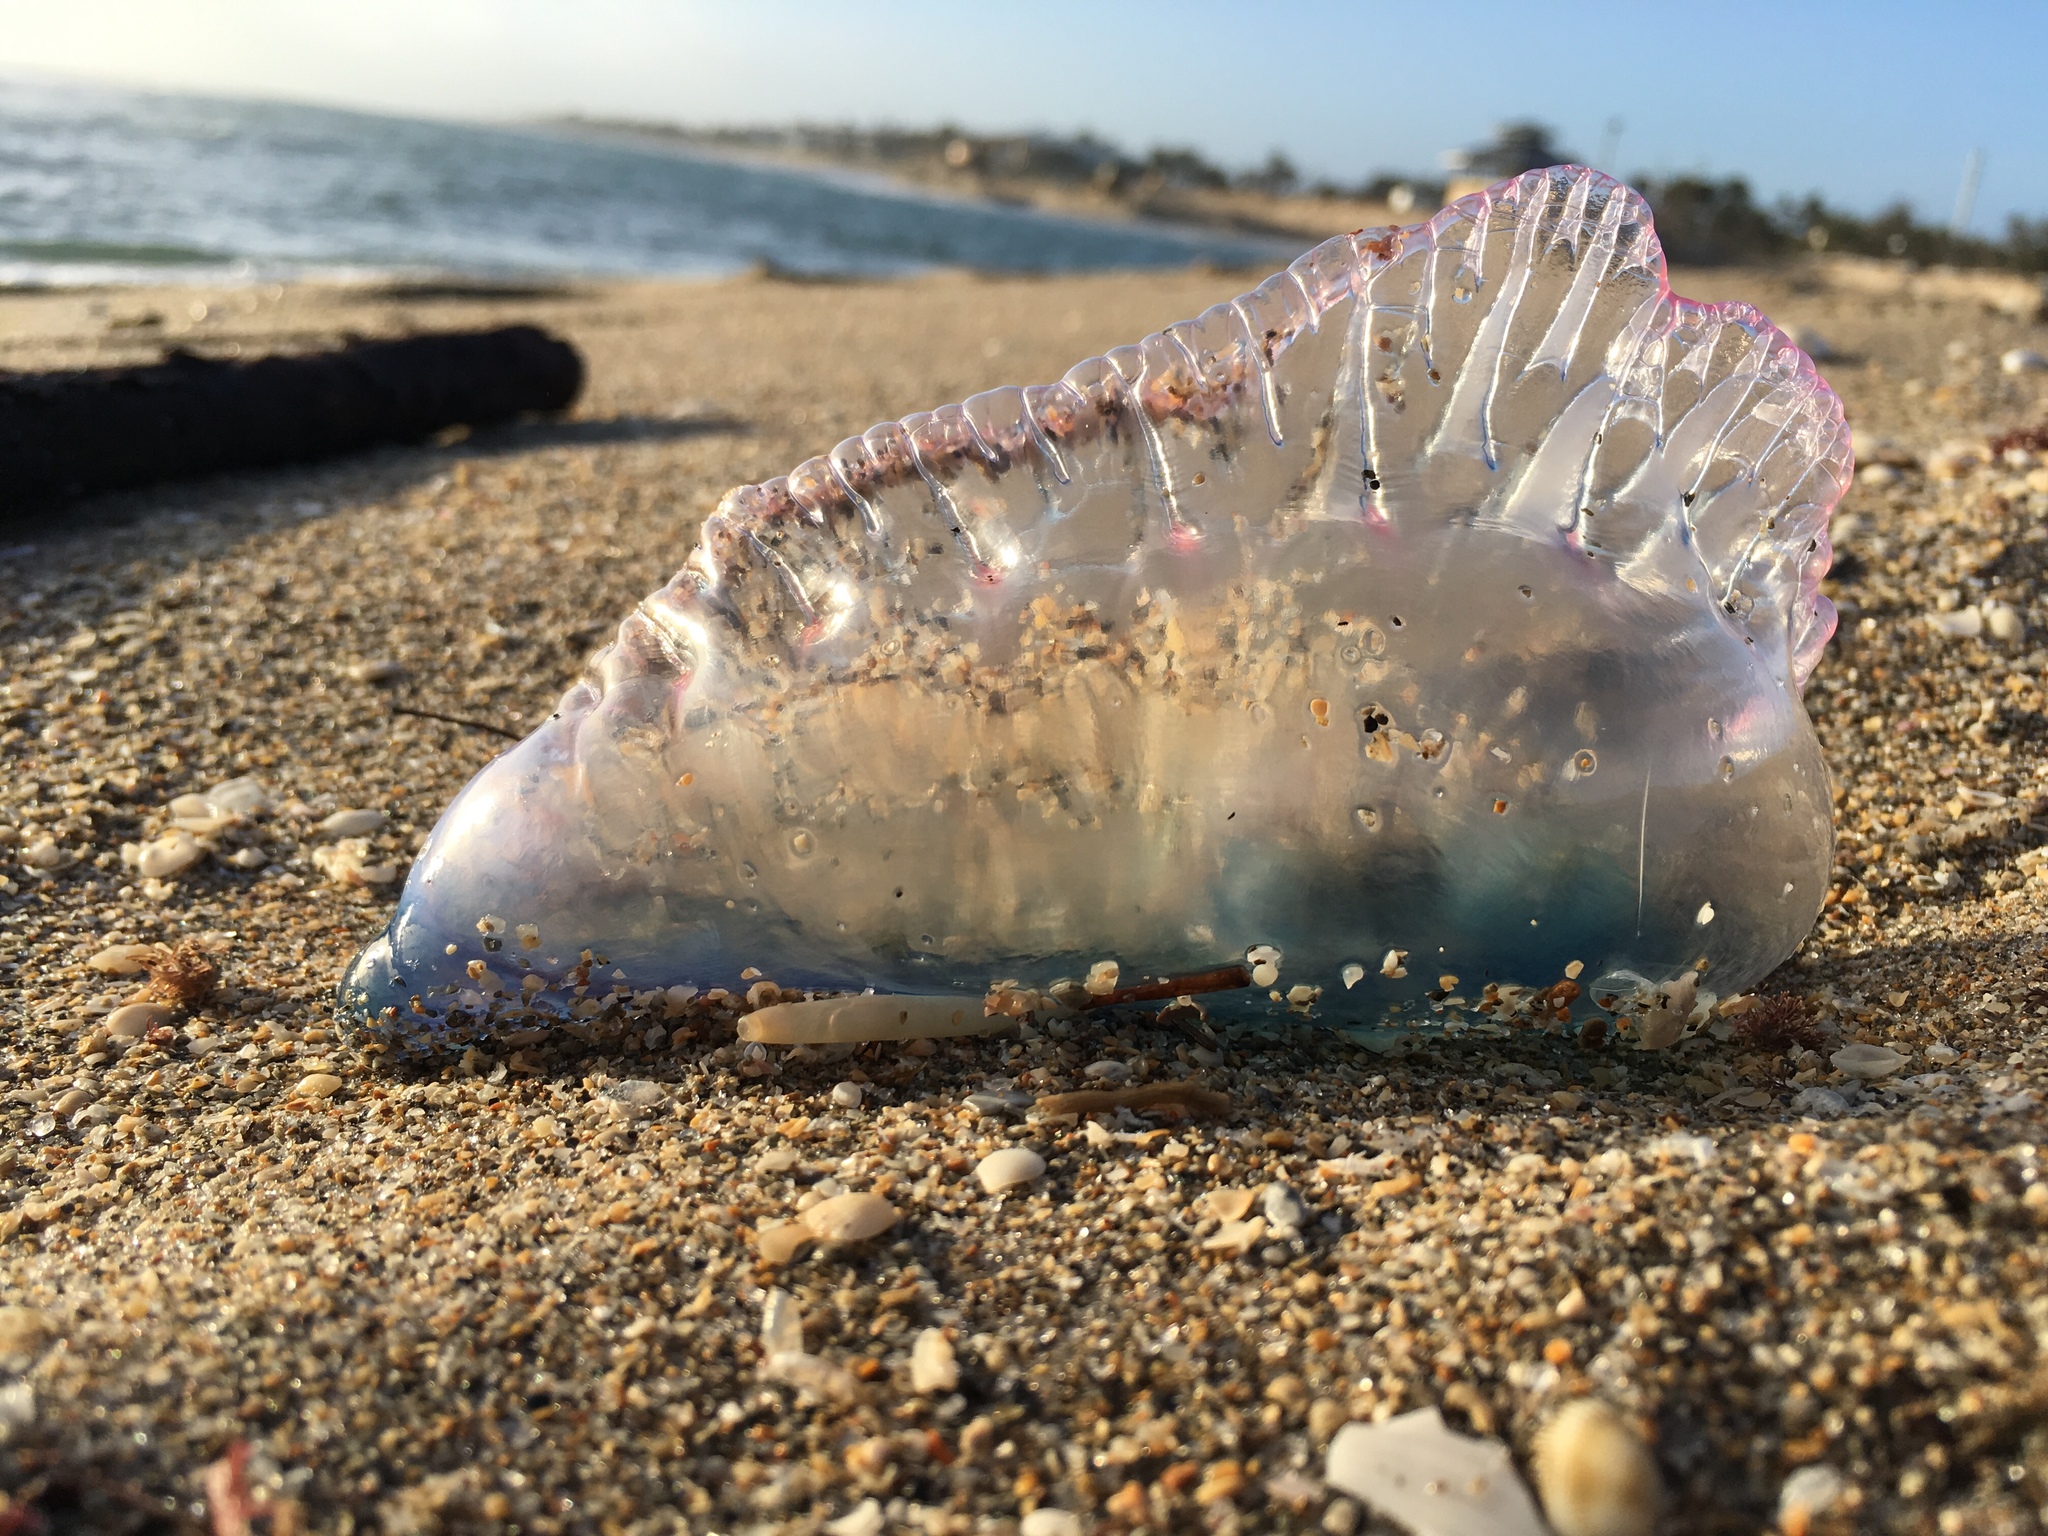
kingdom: Animalia
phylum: Cnidaria
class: Hydrozoa
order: Siphonophorae
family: Physaliidae
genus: Physalia
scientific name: Physalia physalis
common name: Portuguese man-of-war
